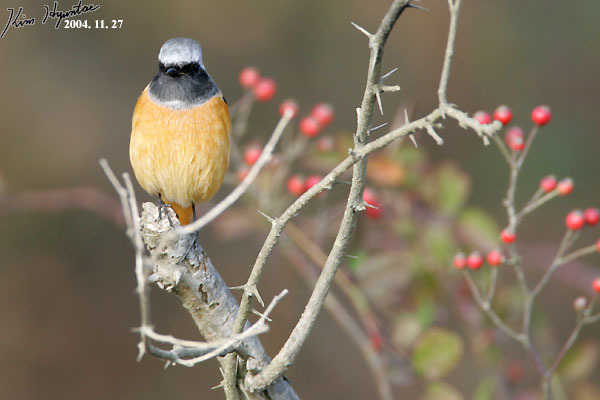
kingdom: Animalia
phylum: Chordata
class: Aves
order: Passeriformes
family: Muscicapidae
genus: Phoenicurus
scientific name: Phoenicurus auroreus
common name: Daurian redstart
